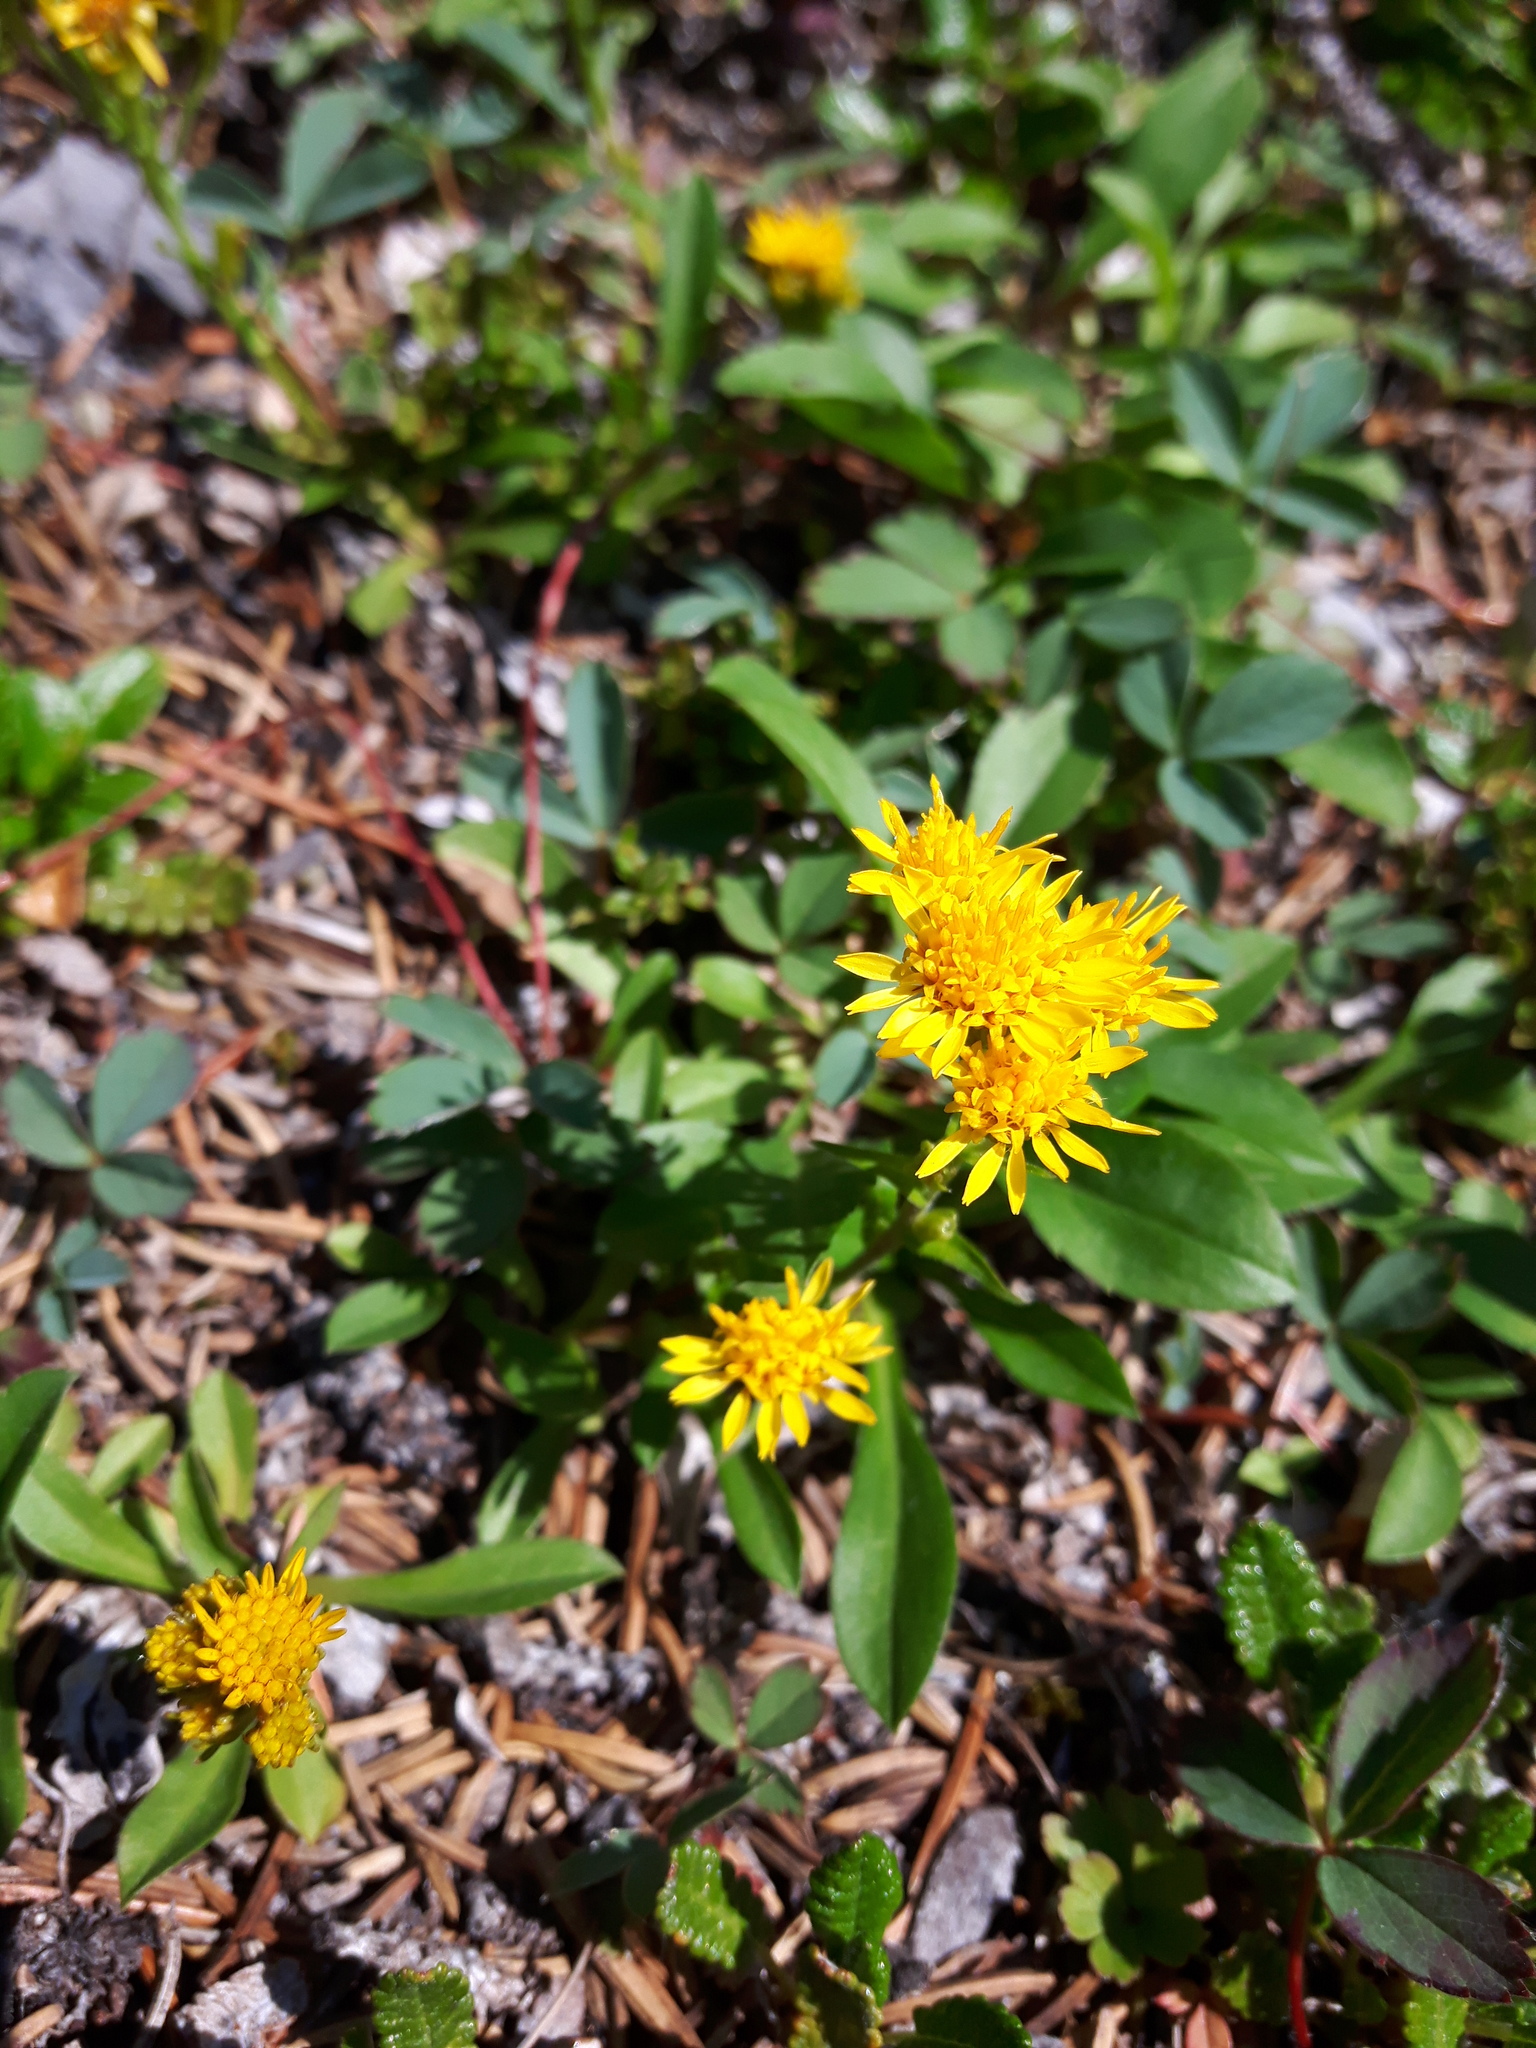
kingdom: Plantae
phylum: Tracheophyta
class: Magnoliopsida
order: Asterales
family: Asteraceae
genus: Solidago
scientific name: Solidago multiradiata
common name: Northern goldenrod
